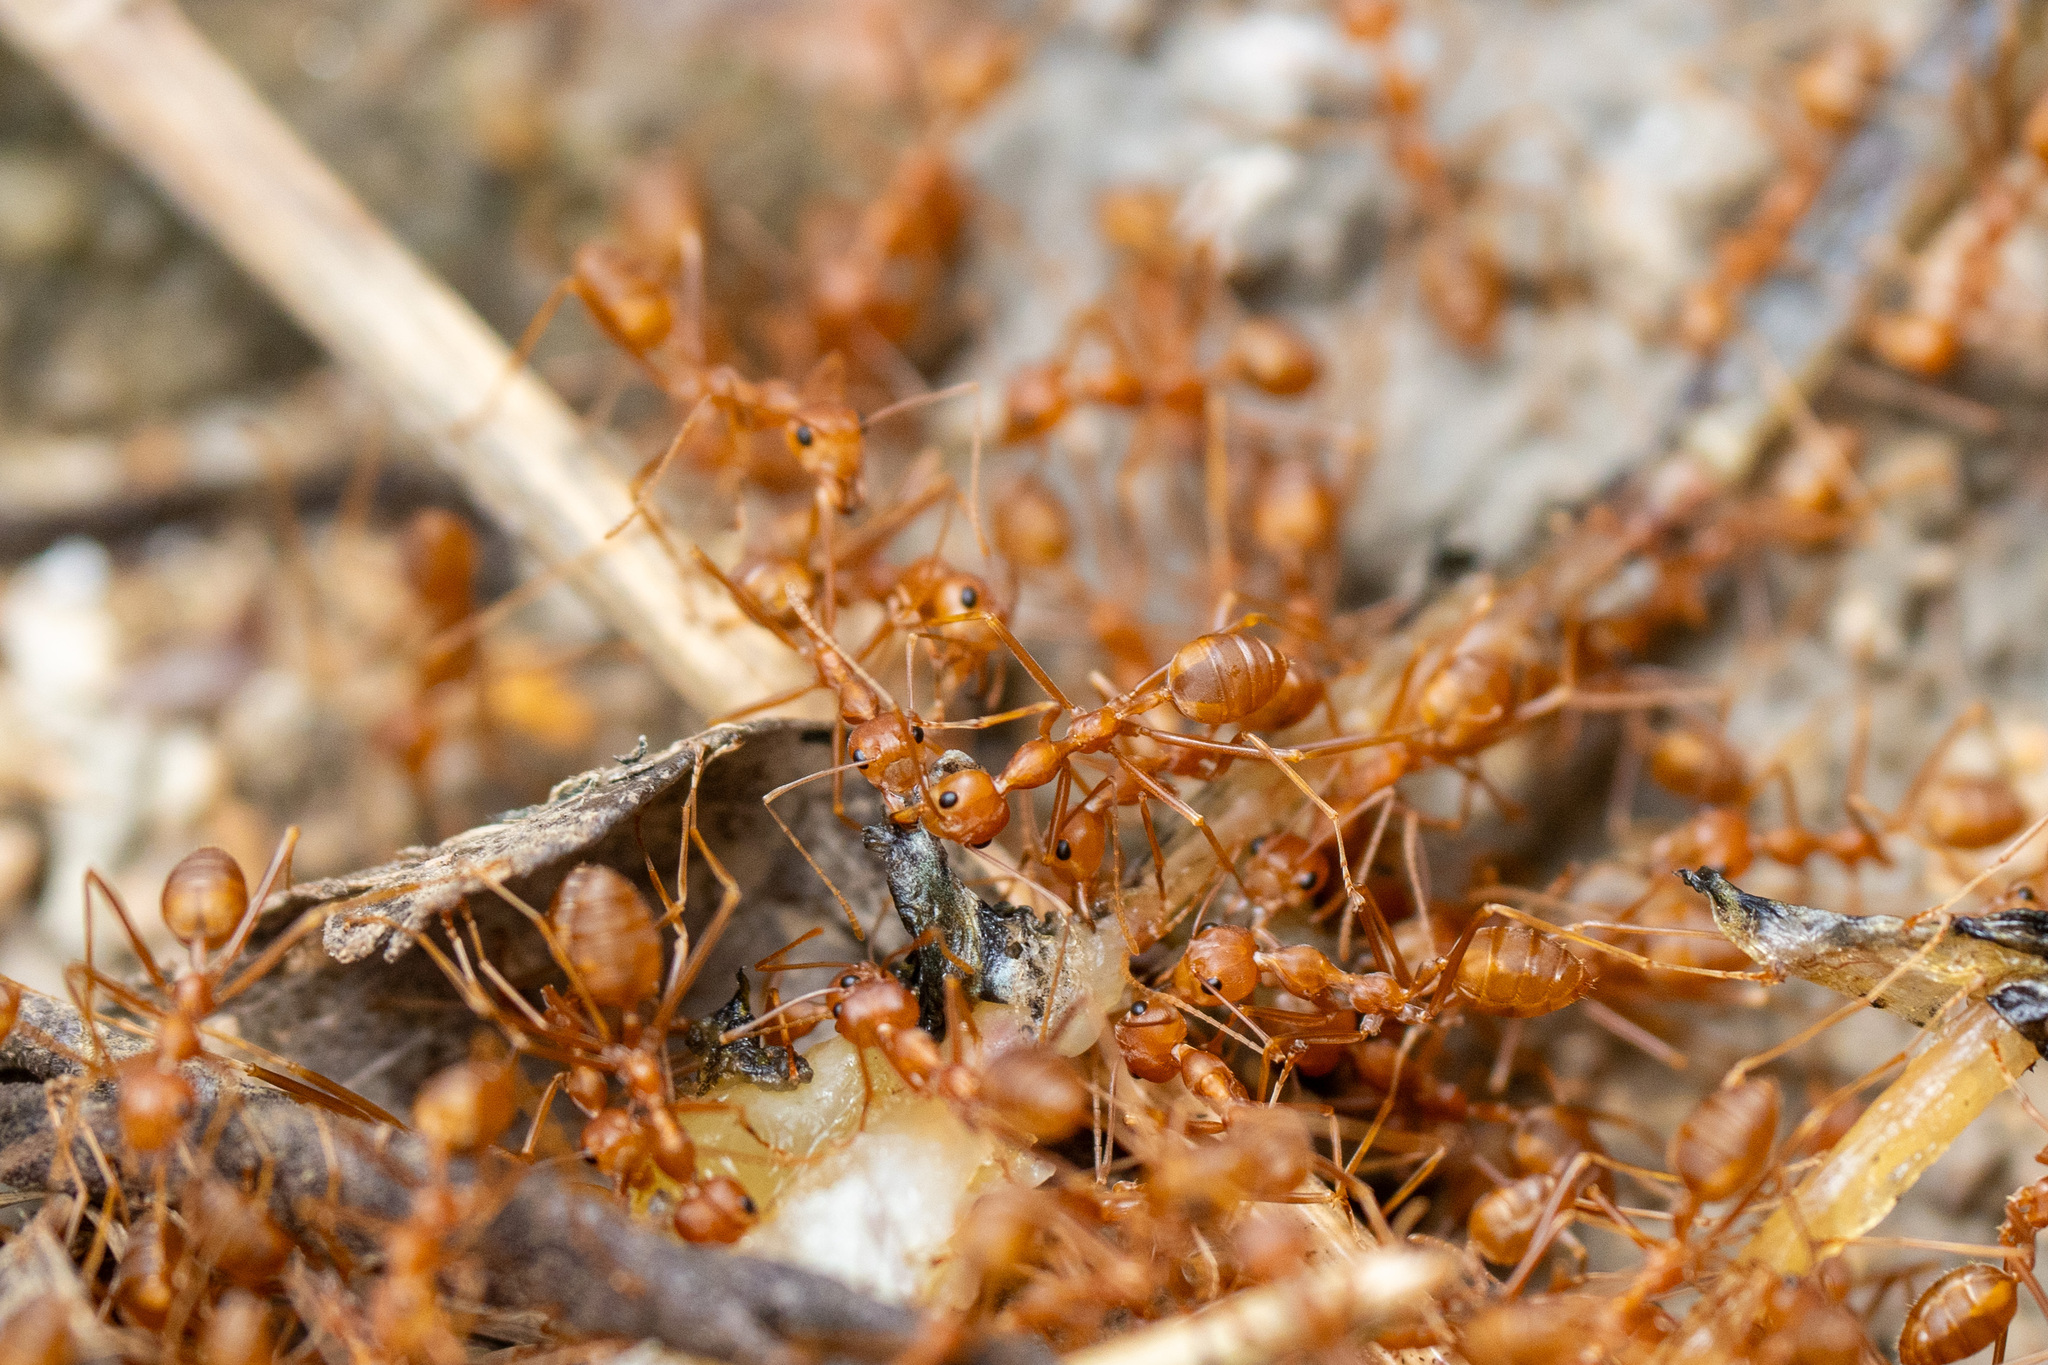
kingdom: Animalia
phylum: Arthropoda
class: Insecta
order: Hymenoptera
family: Formicidae
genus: Oecophylla
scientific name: Oecophylla smaragdina
